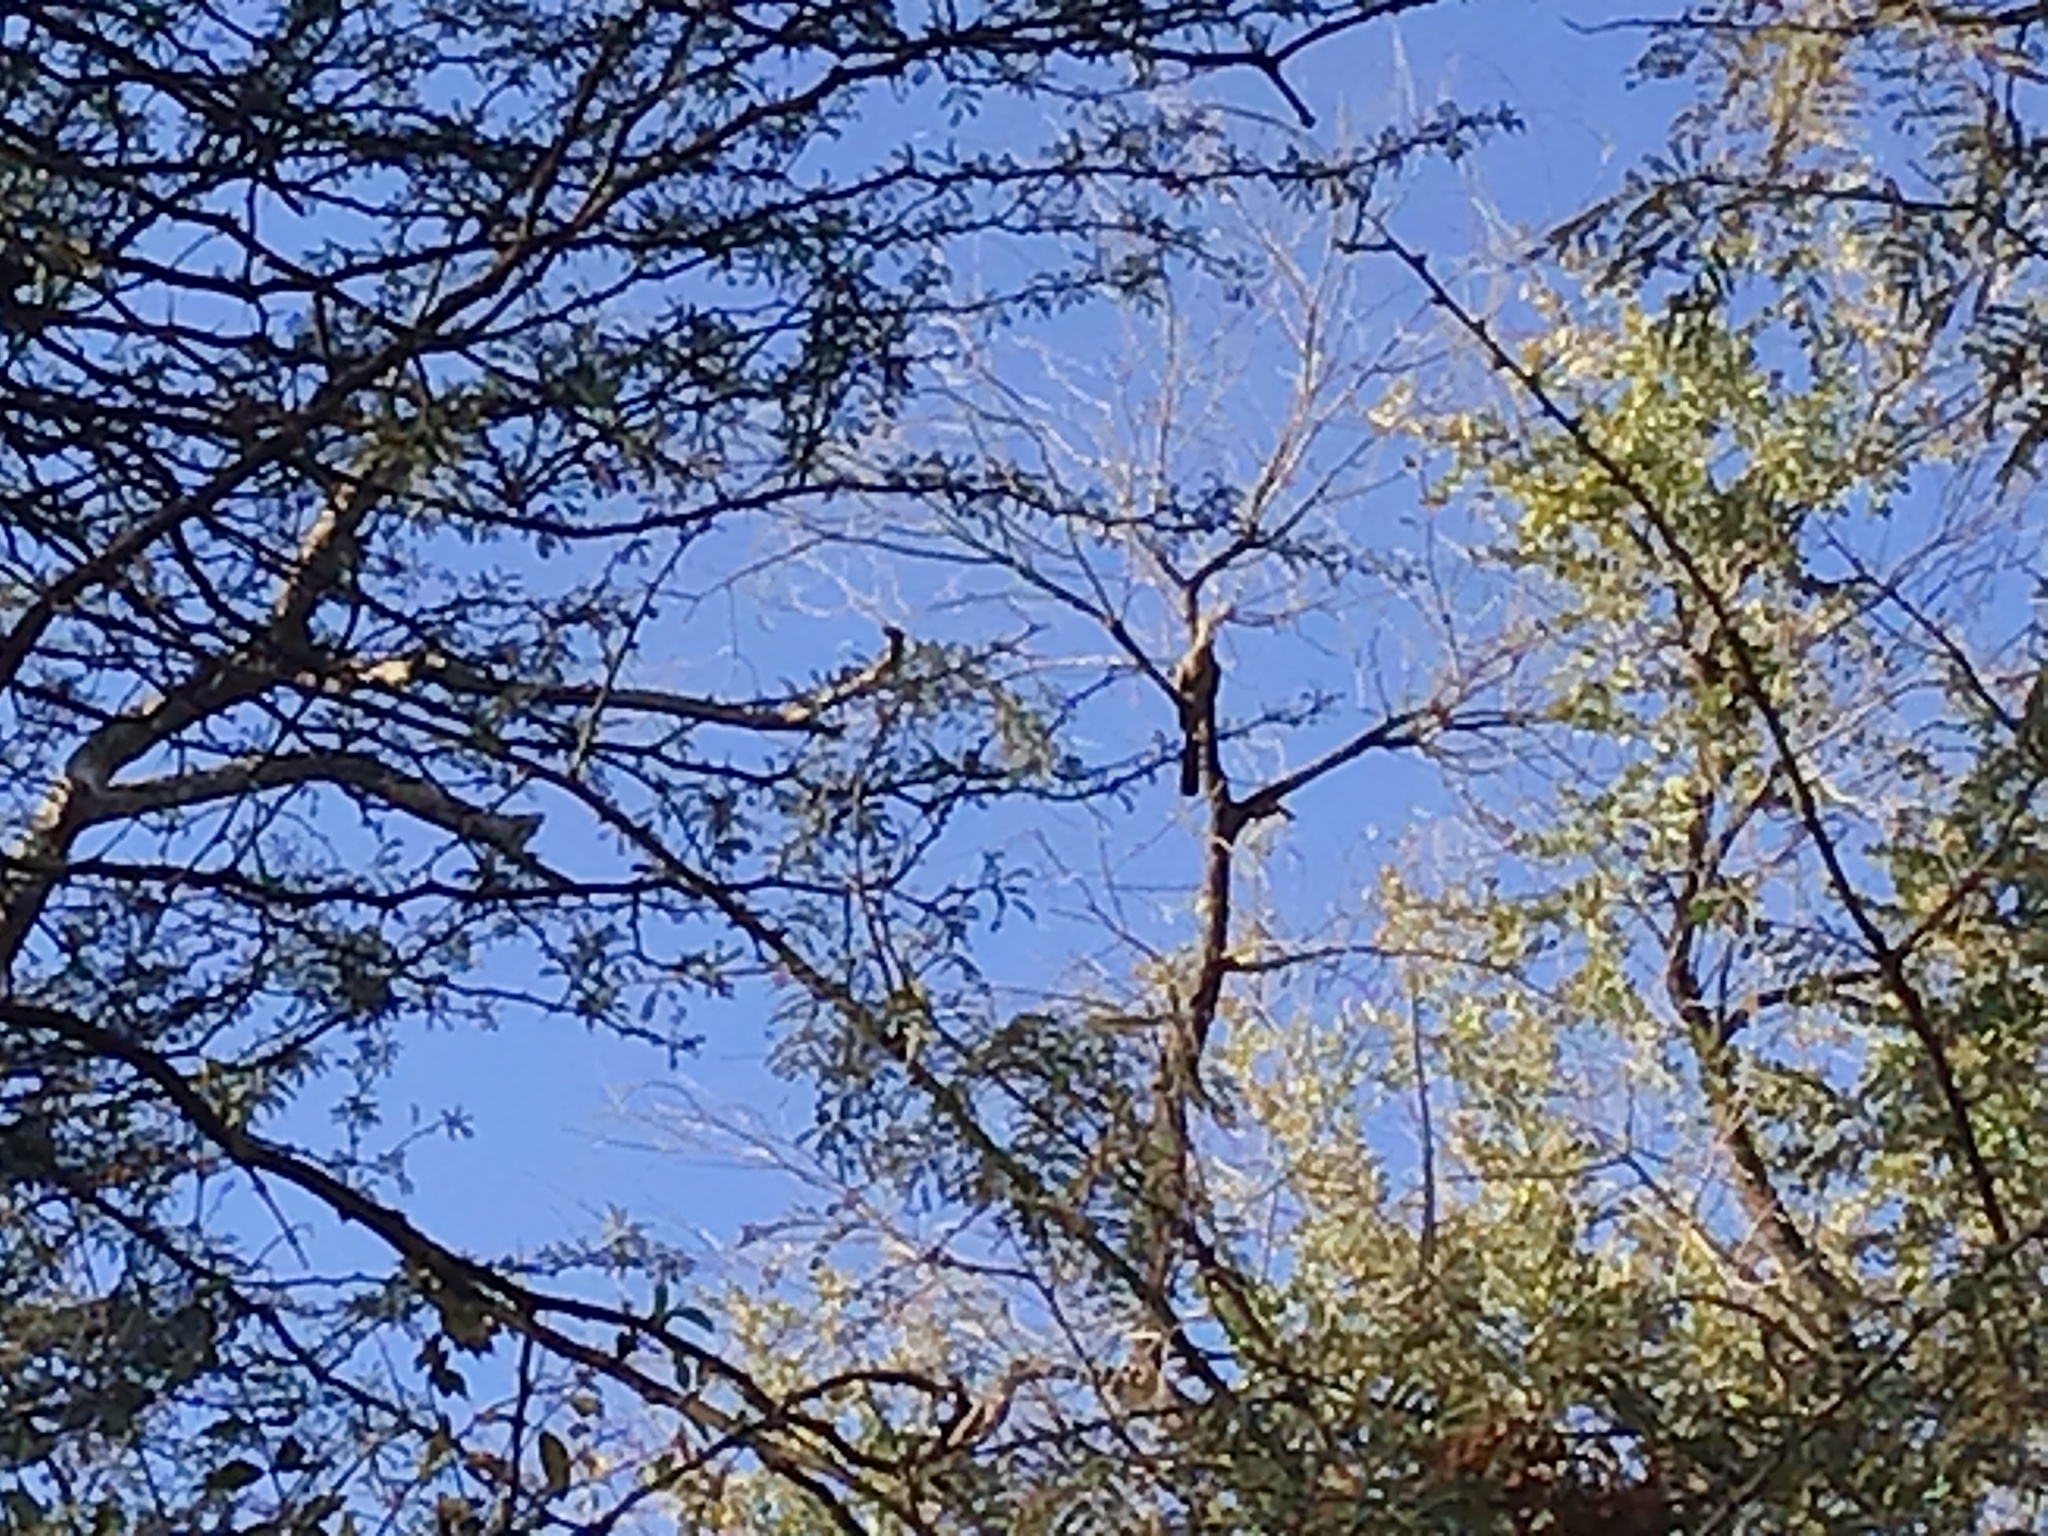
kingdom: Animalia
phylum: Chordata
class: Aves
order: Musophagiformes
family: Musophagidae
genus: Corythaixoides
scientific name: Corythaixoides concolor
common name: Grey go-away-bird
